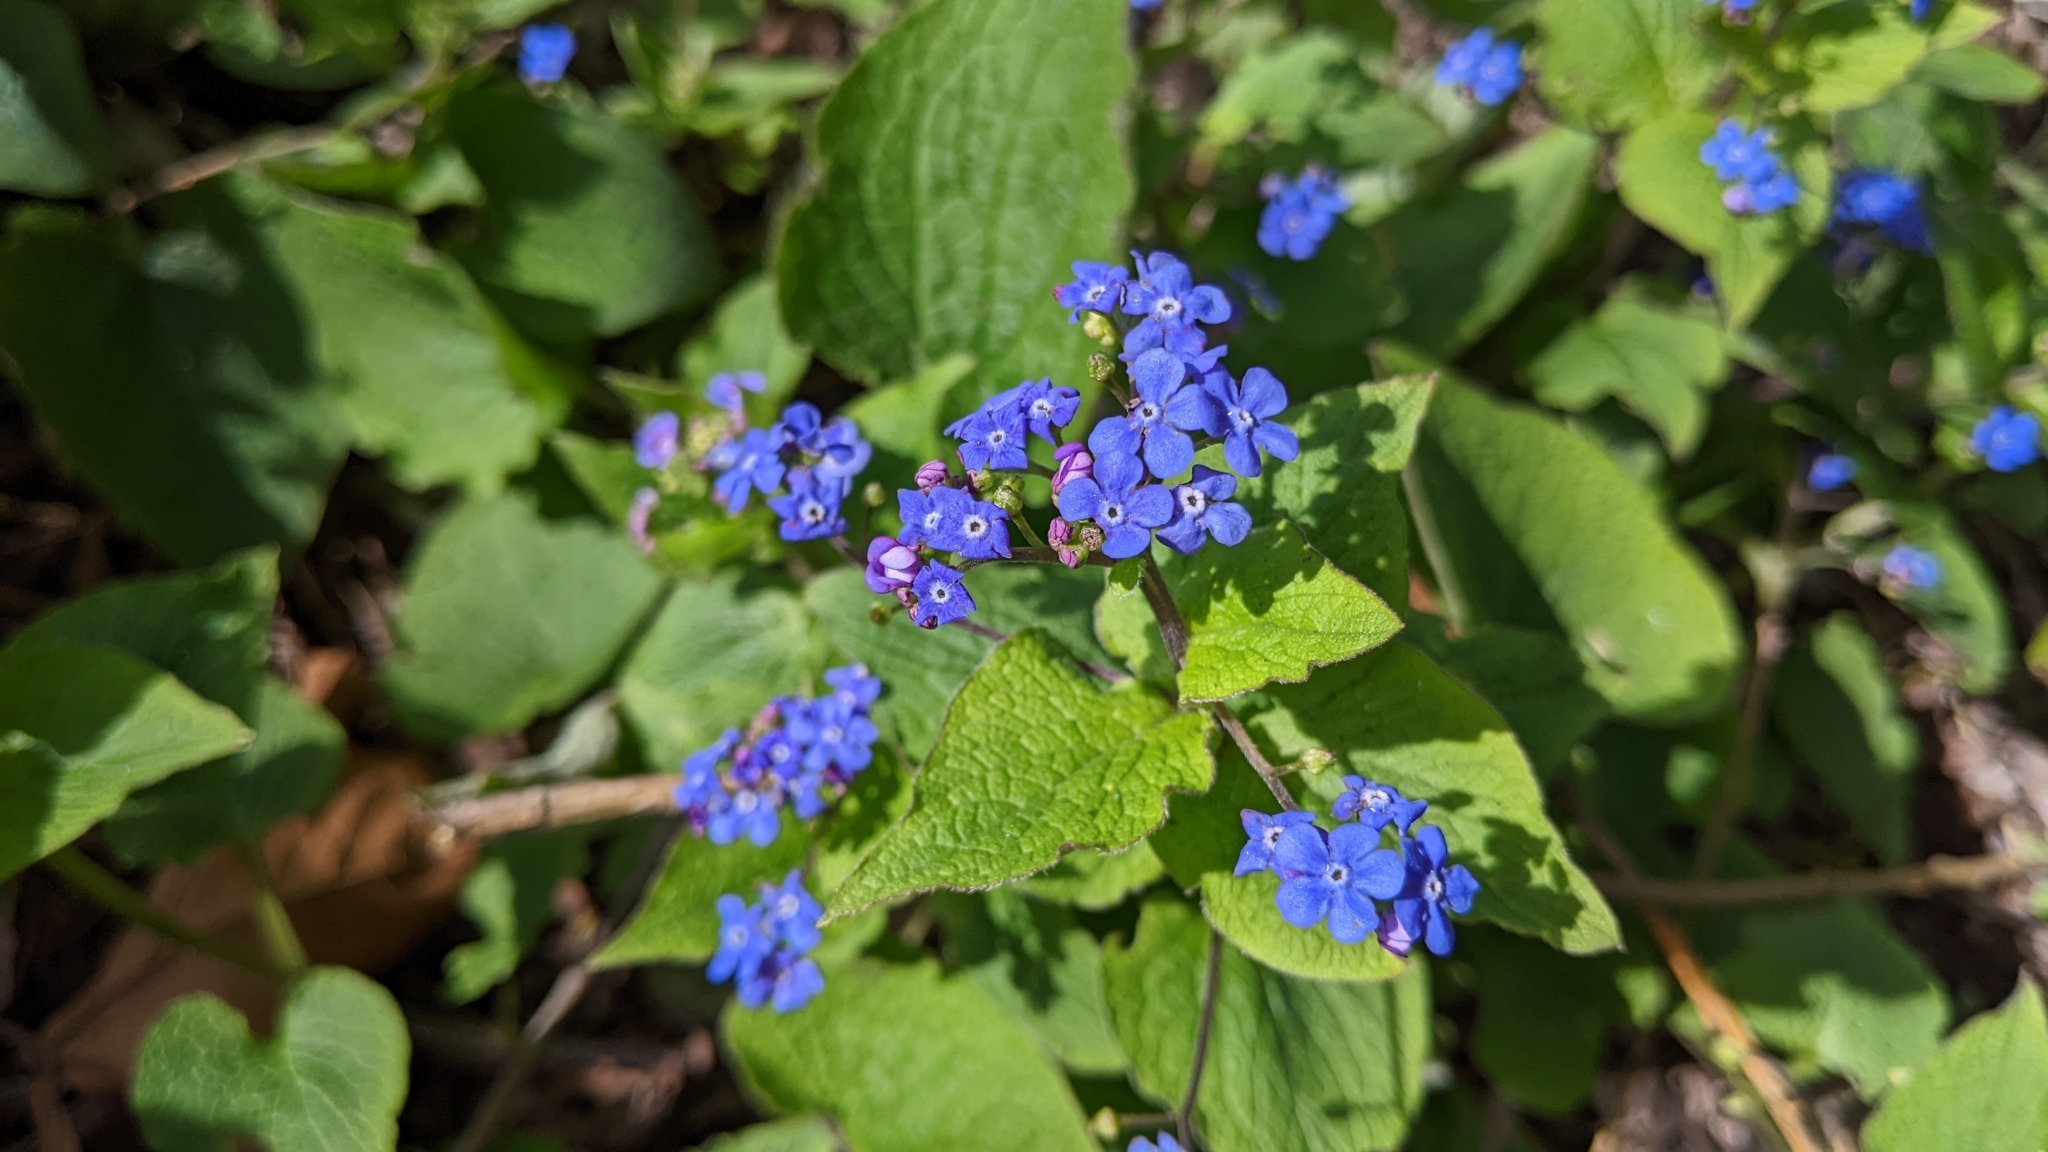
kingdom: Plantae
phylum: Tracheophyta
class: Magnoliopsida
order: Boraginales
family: Boraginaceae
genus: Brunnera
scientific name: Brunnera macrophylla
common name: Great forget-me-not
